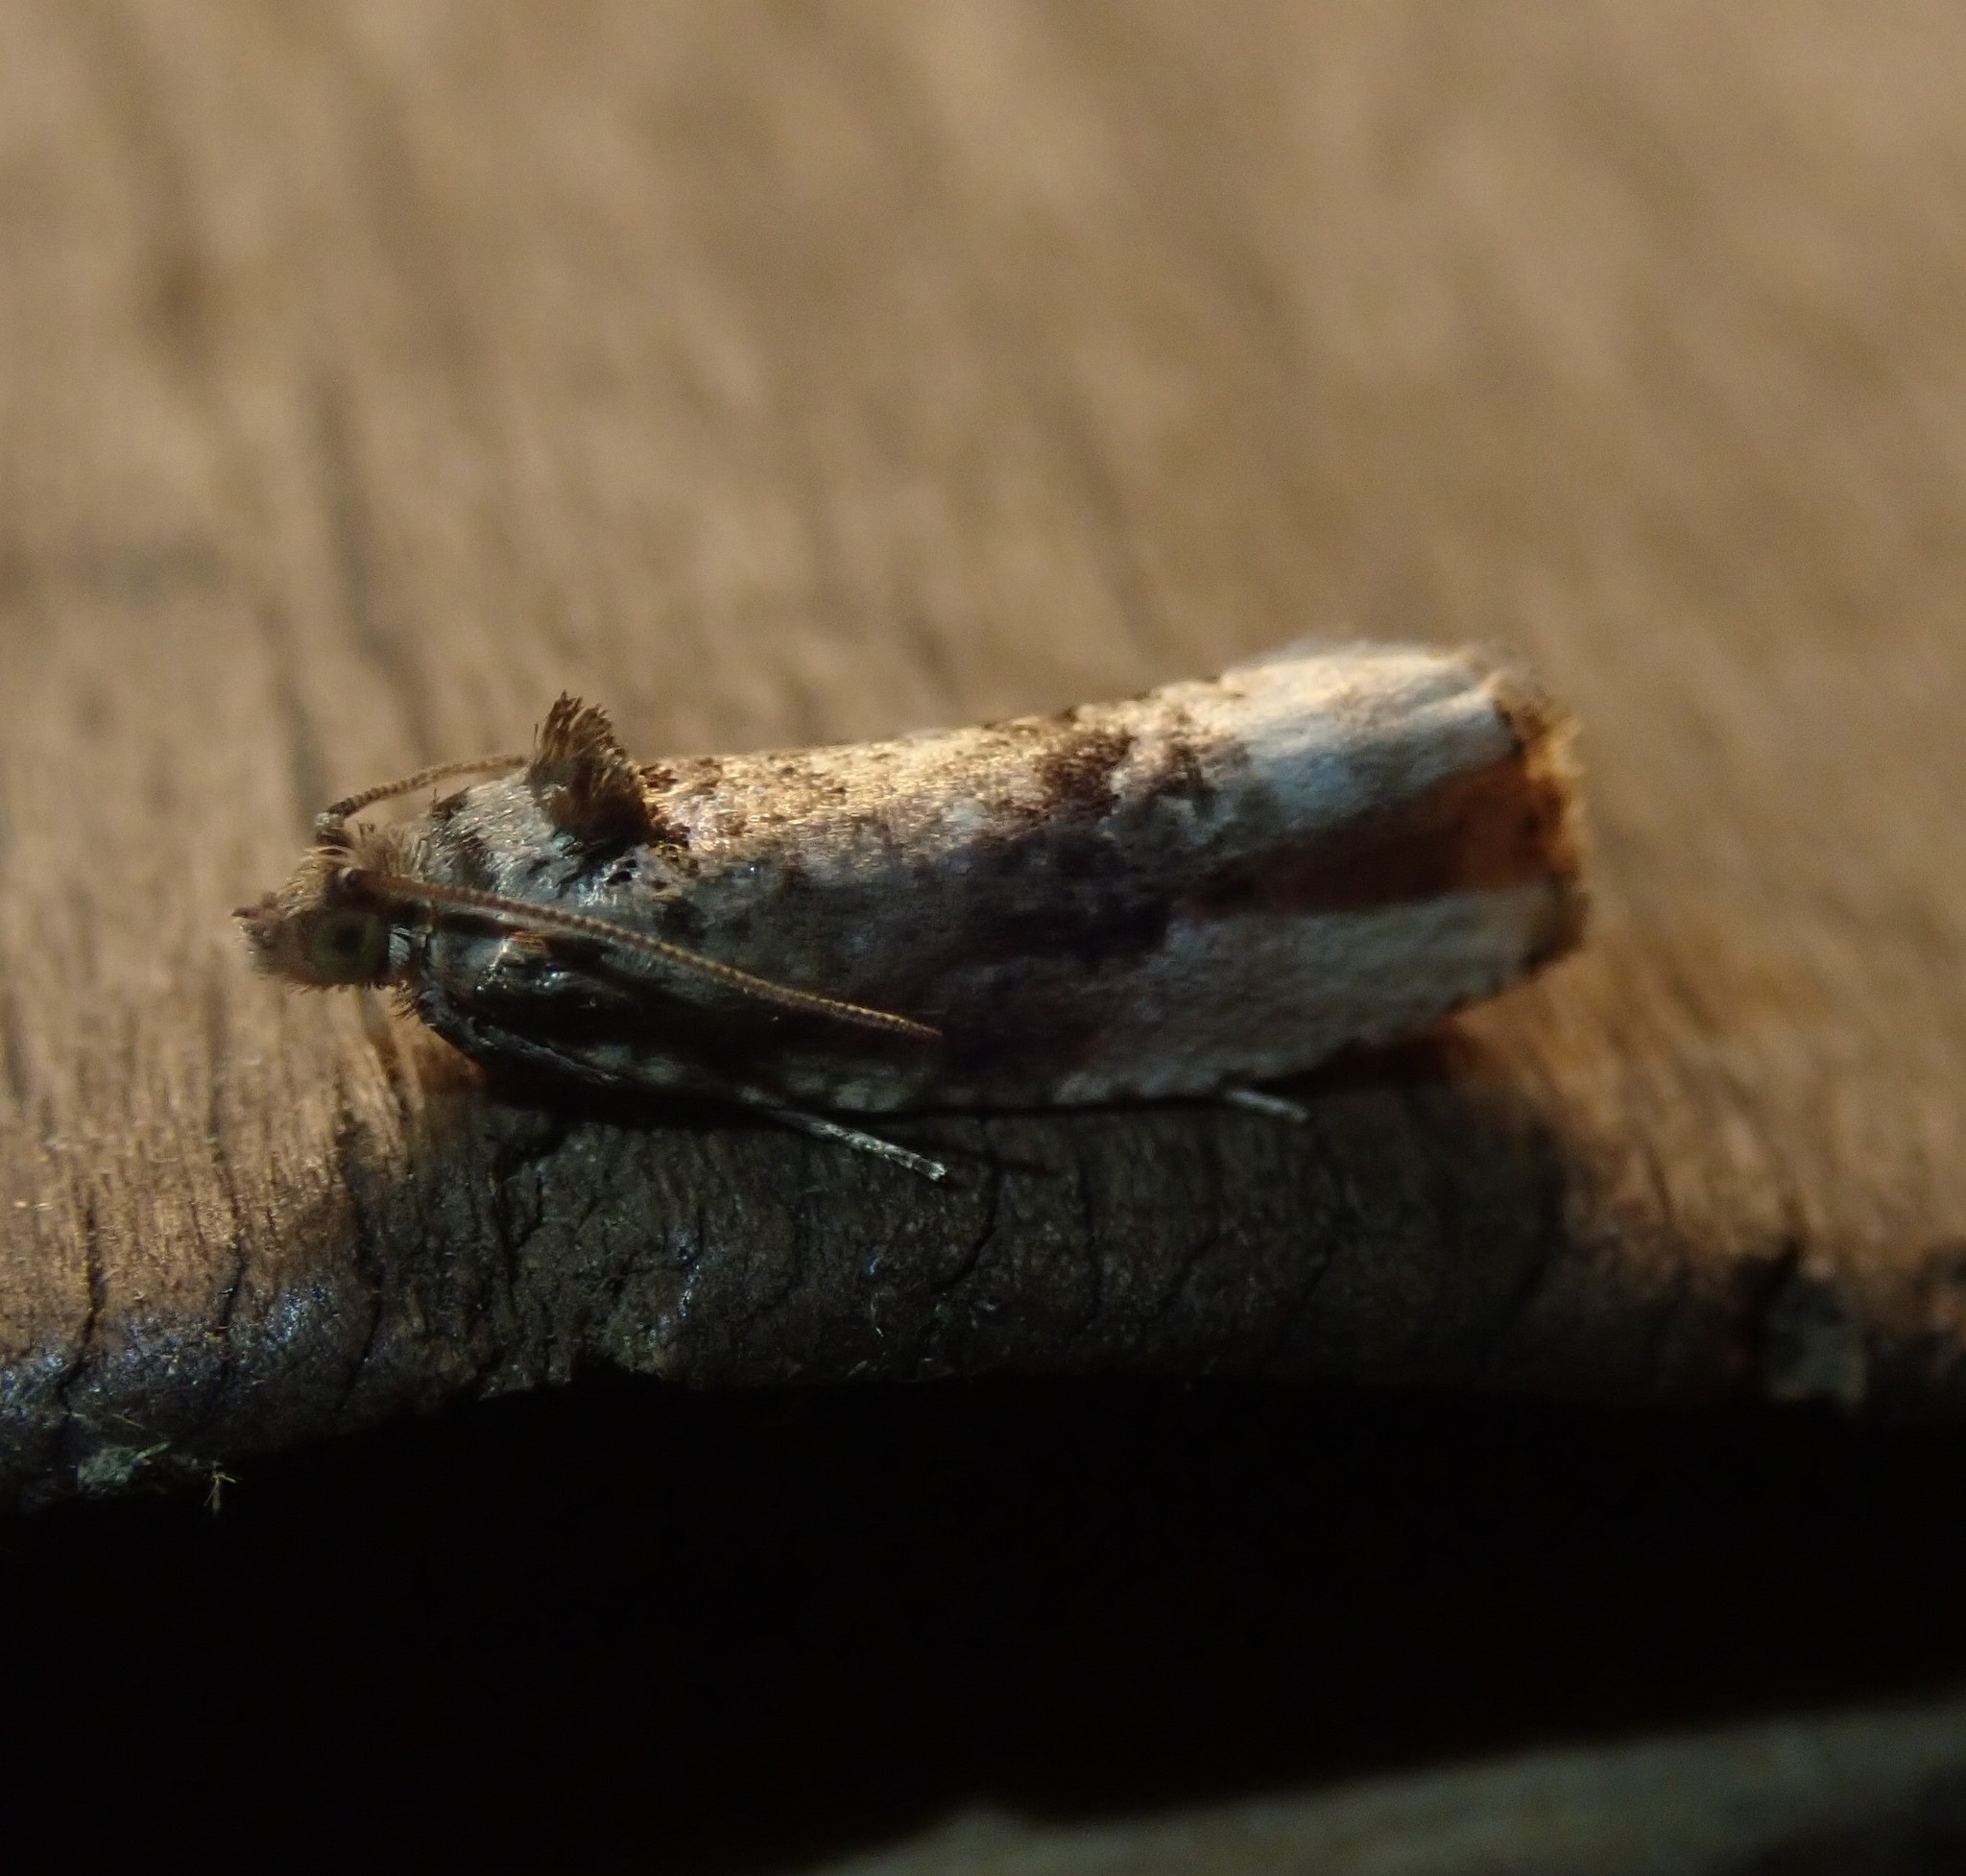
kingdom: Animalia
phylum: Arthropoda
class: Insecta
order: Lepidoptera
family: Tortricidae
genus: Hedya
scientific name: Hedya nubiferana
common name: Marbled orchard tortrix
